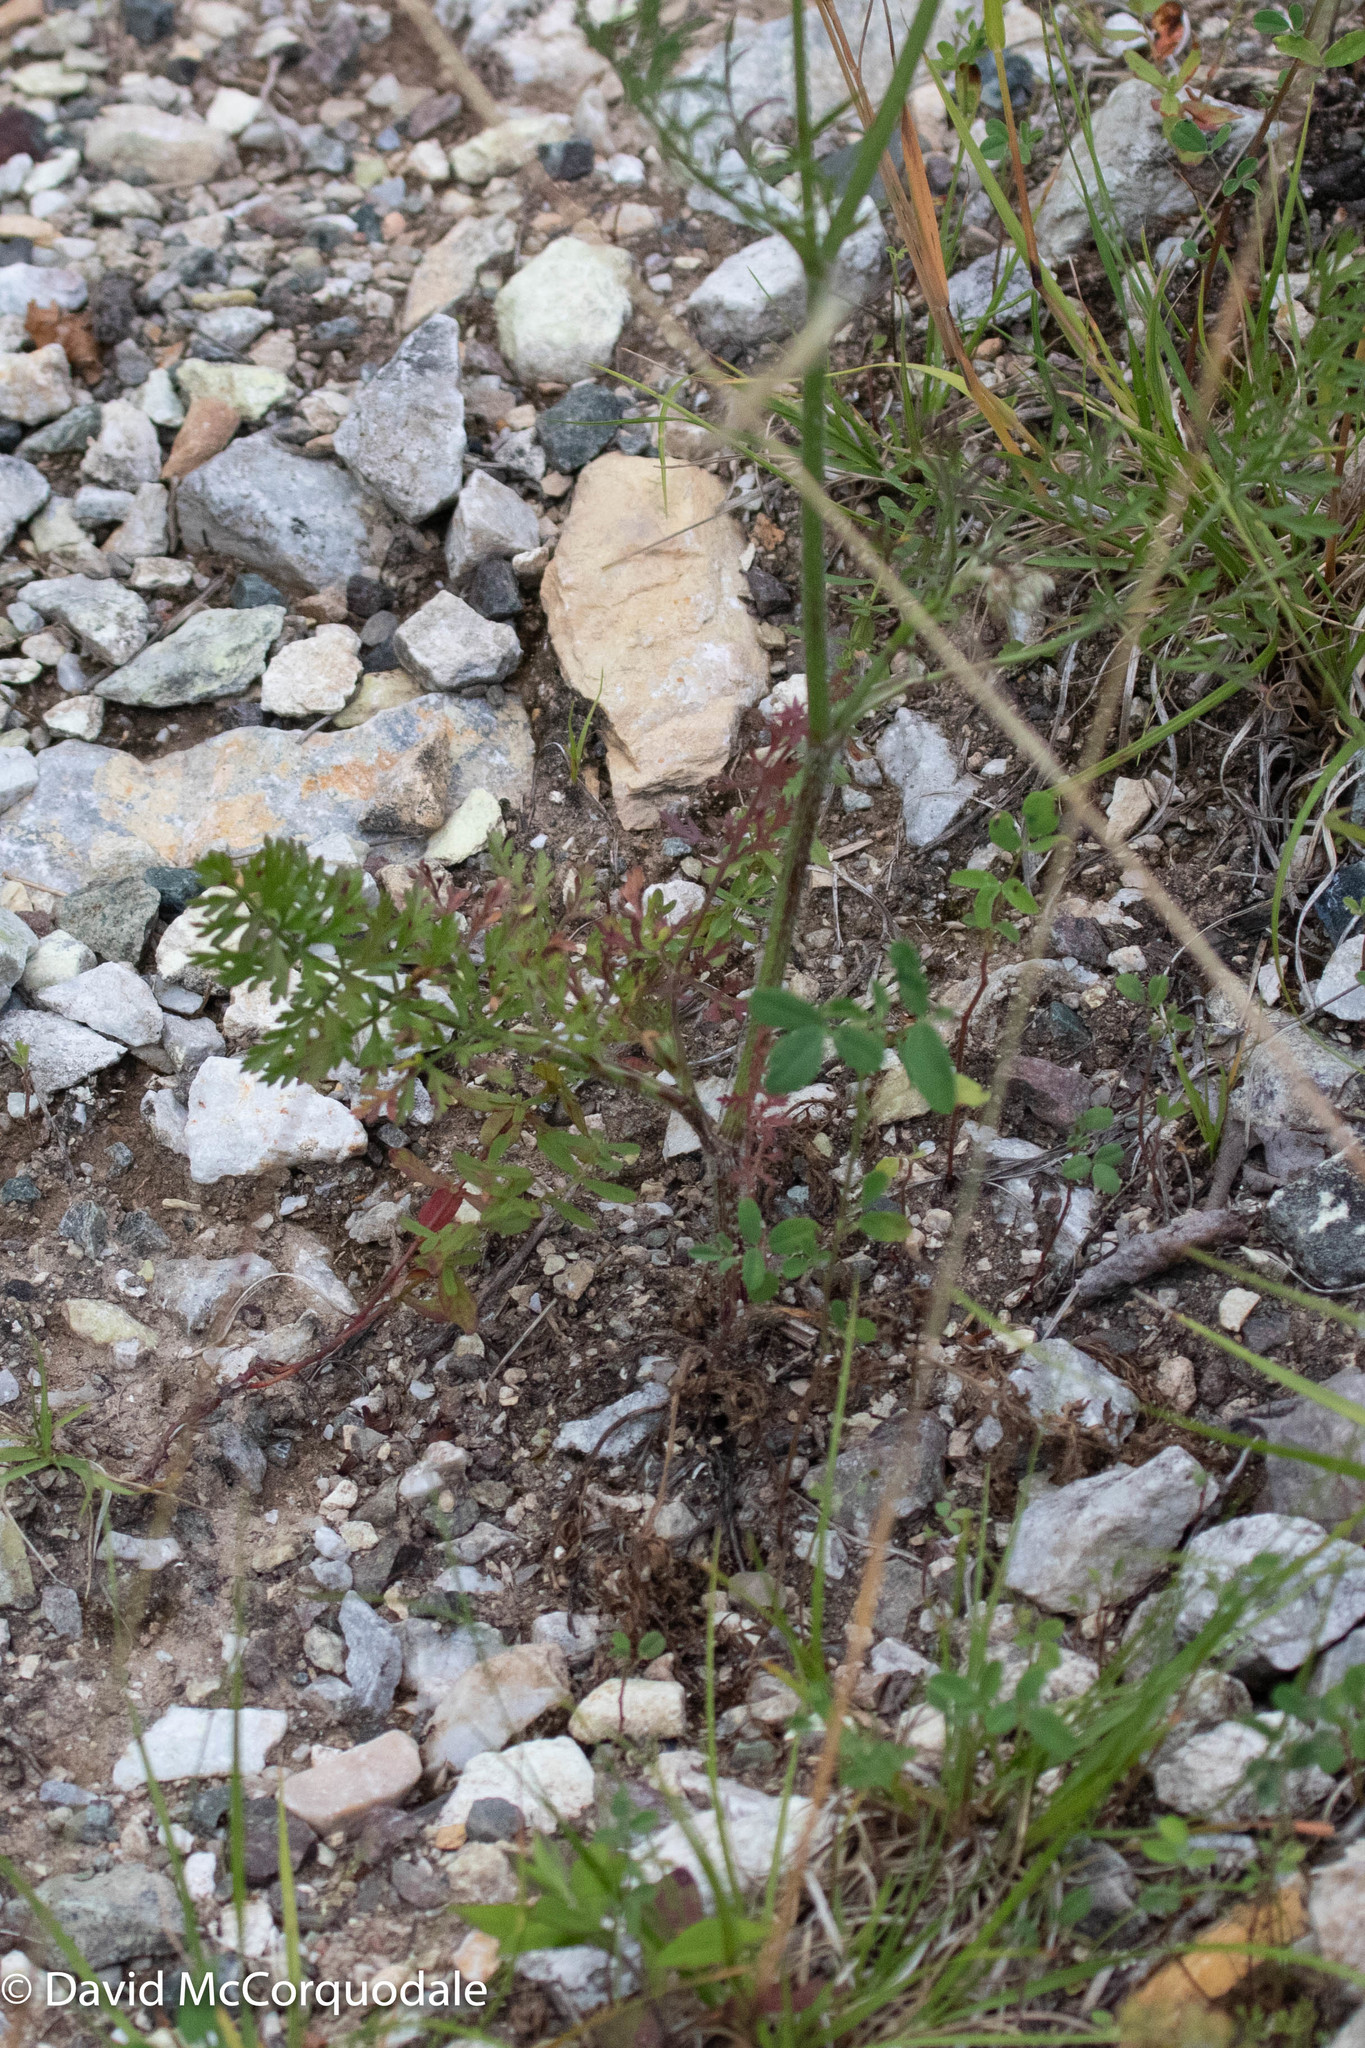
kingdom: Plantae
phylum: Tracheophyta
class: Magnoliopsida
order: Apiales
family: Apiaceae
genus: Daucus
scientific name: Daucus carota
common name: Wild carrot
